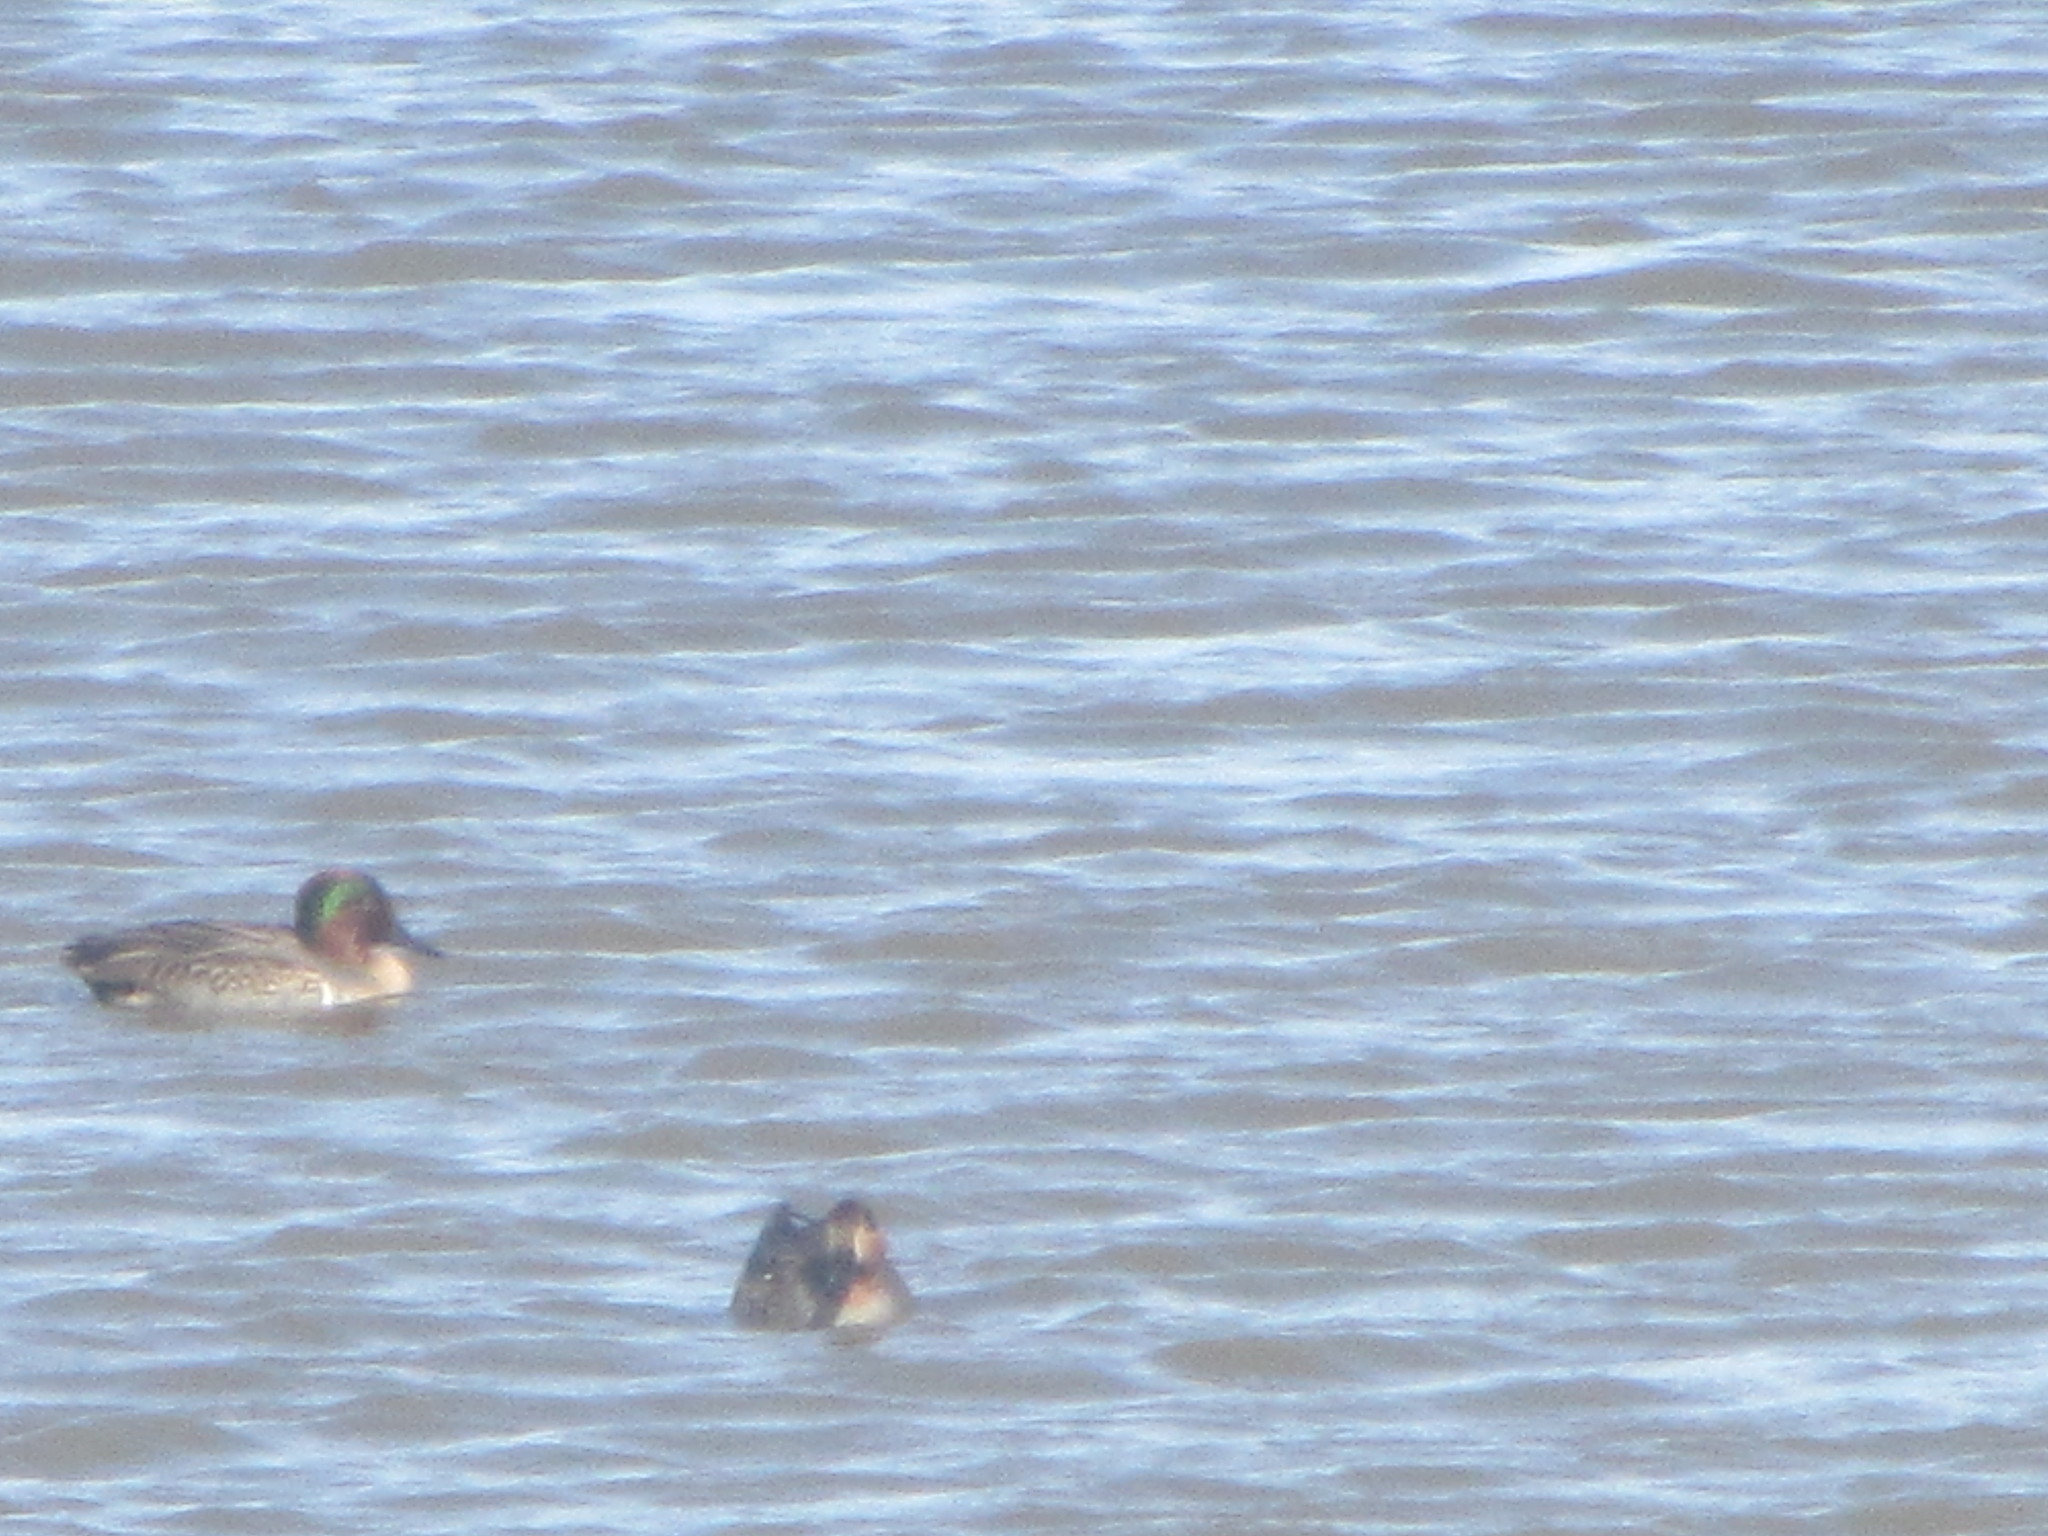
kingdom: Animalia
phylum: Chordata
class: Aves
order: Anseriformes
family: Anatidae
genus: Anas
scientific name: Anas crecca
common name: Eurasian teal
